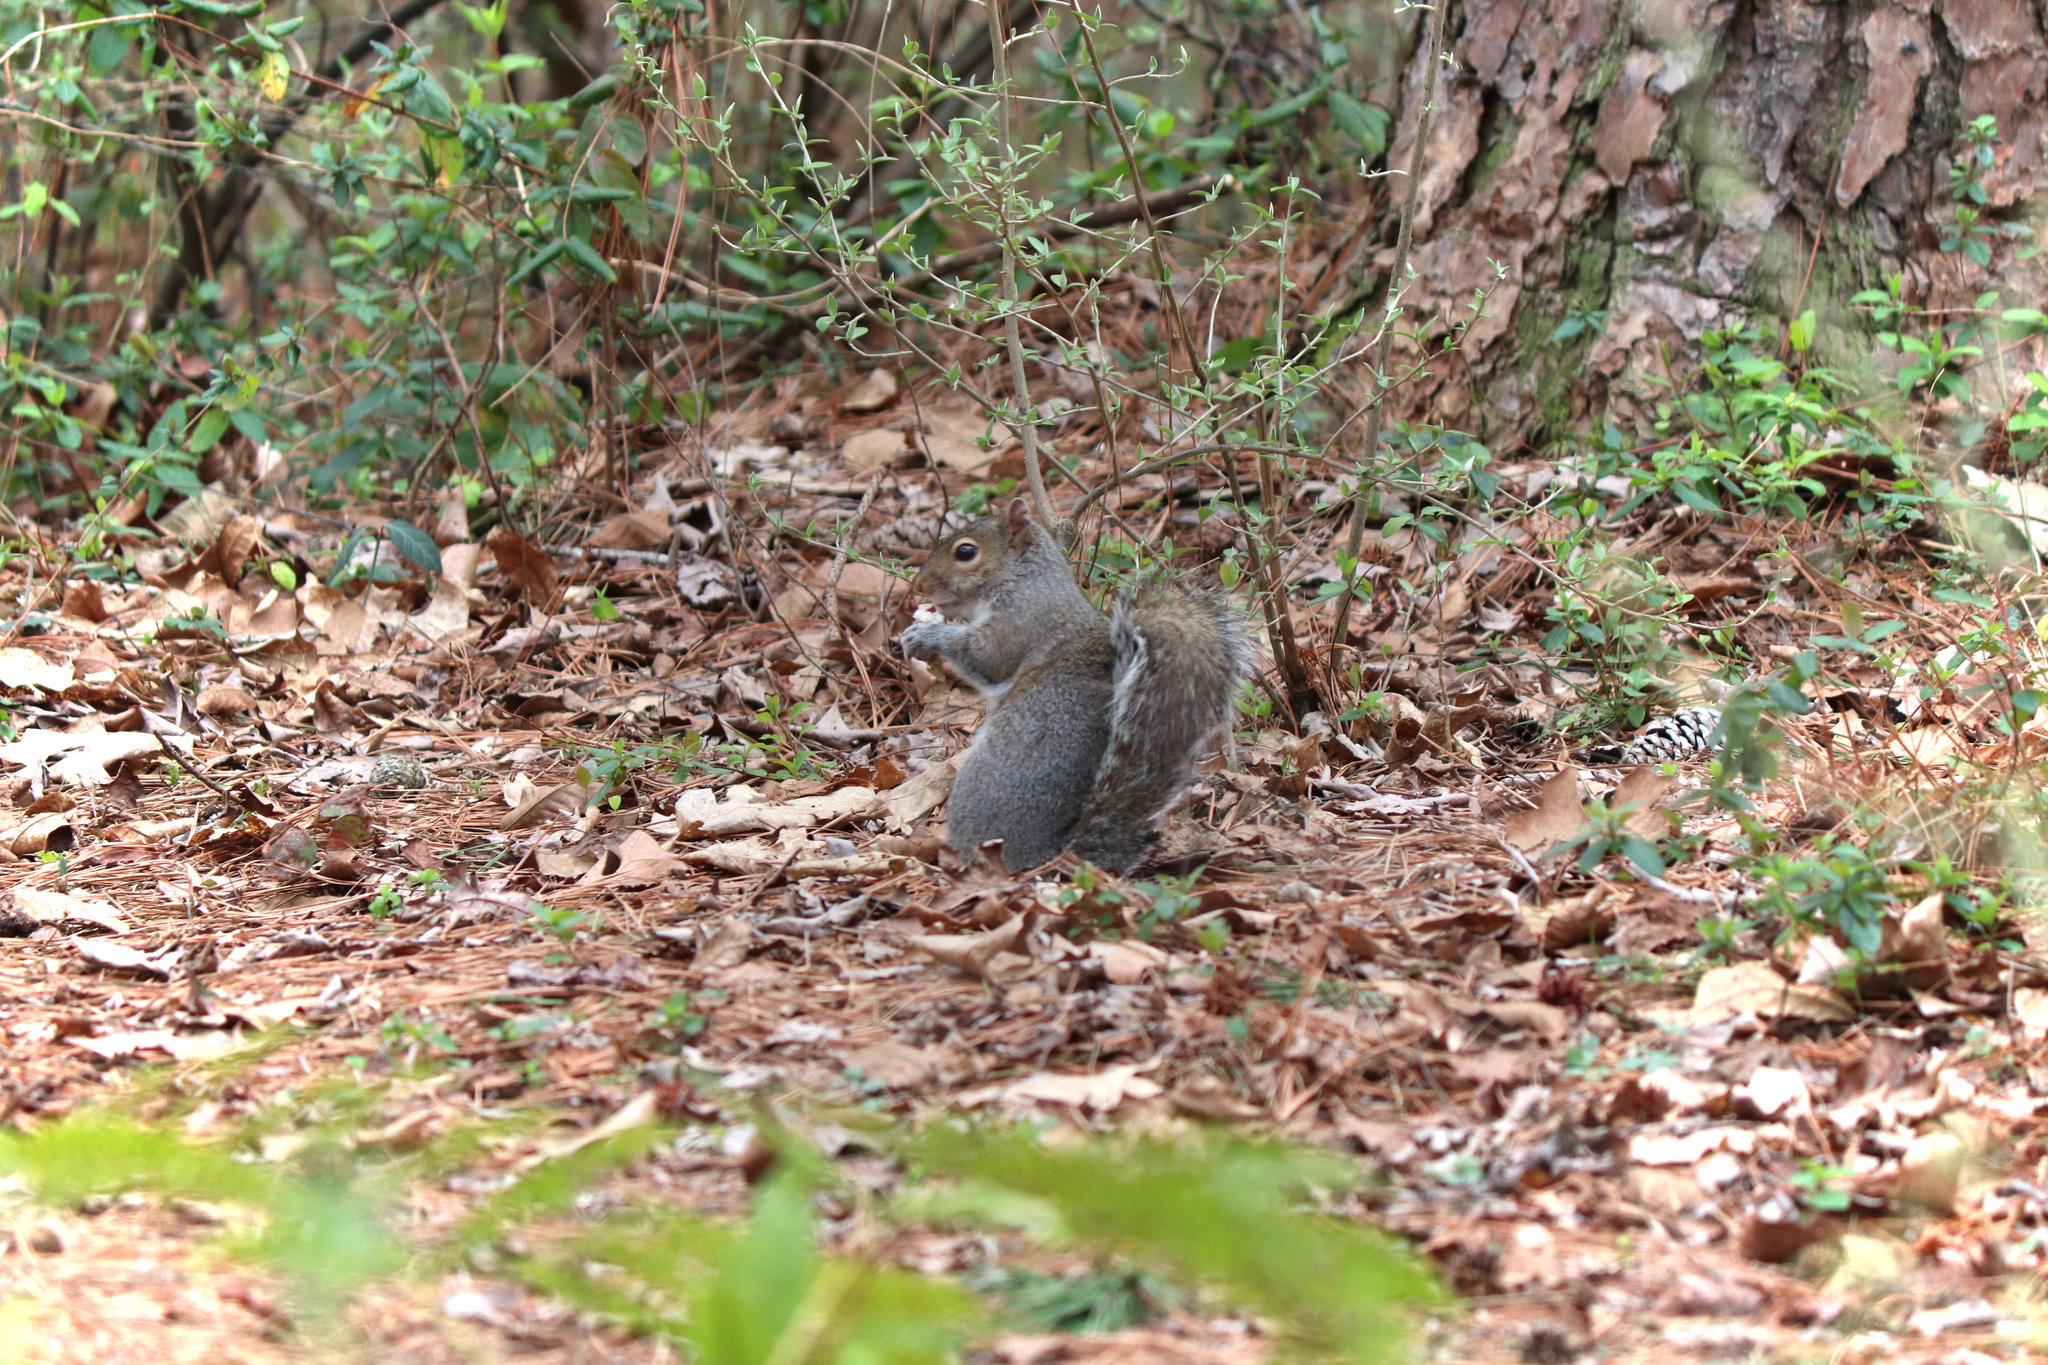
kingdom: Animalia
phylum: Chordata
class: Mammalia
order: Rodentia
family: Sciuridae
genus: Sciurus
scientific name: Sciurus carolinensis
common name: Eastern gray squirrel
